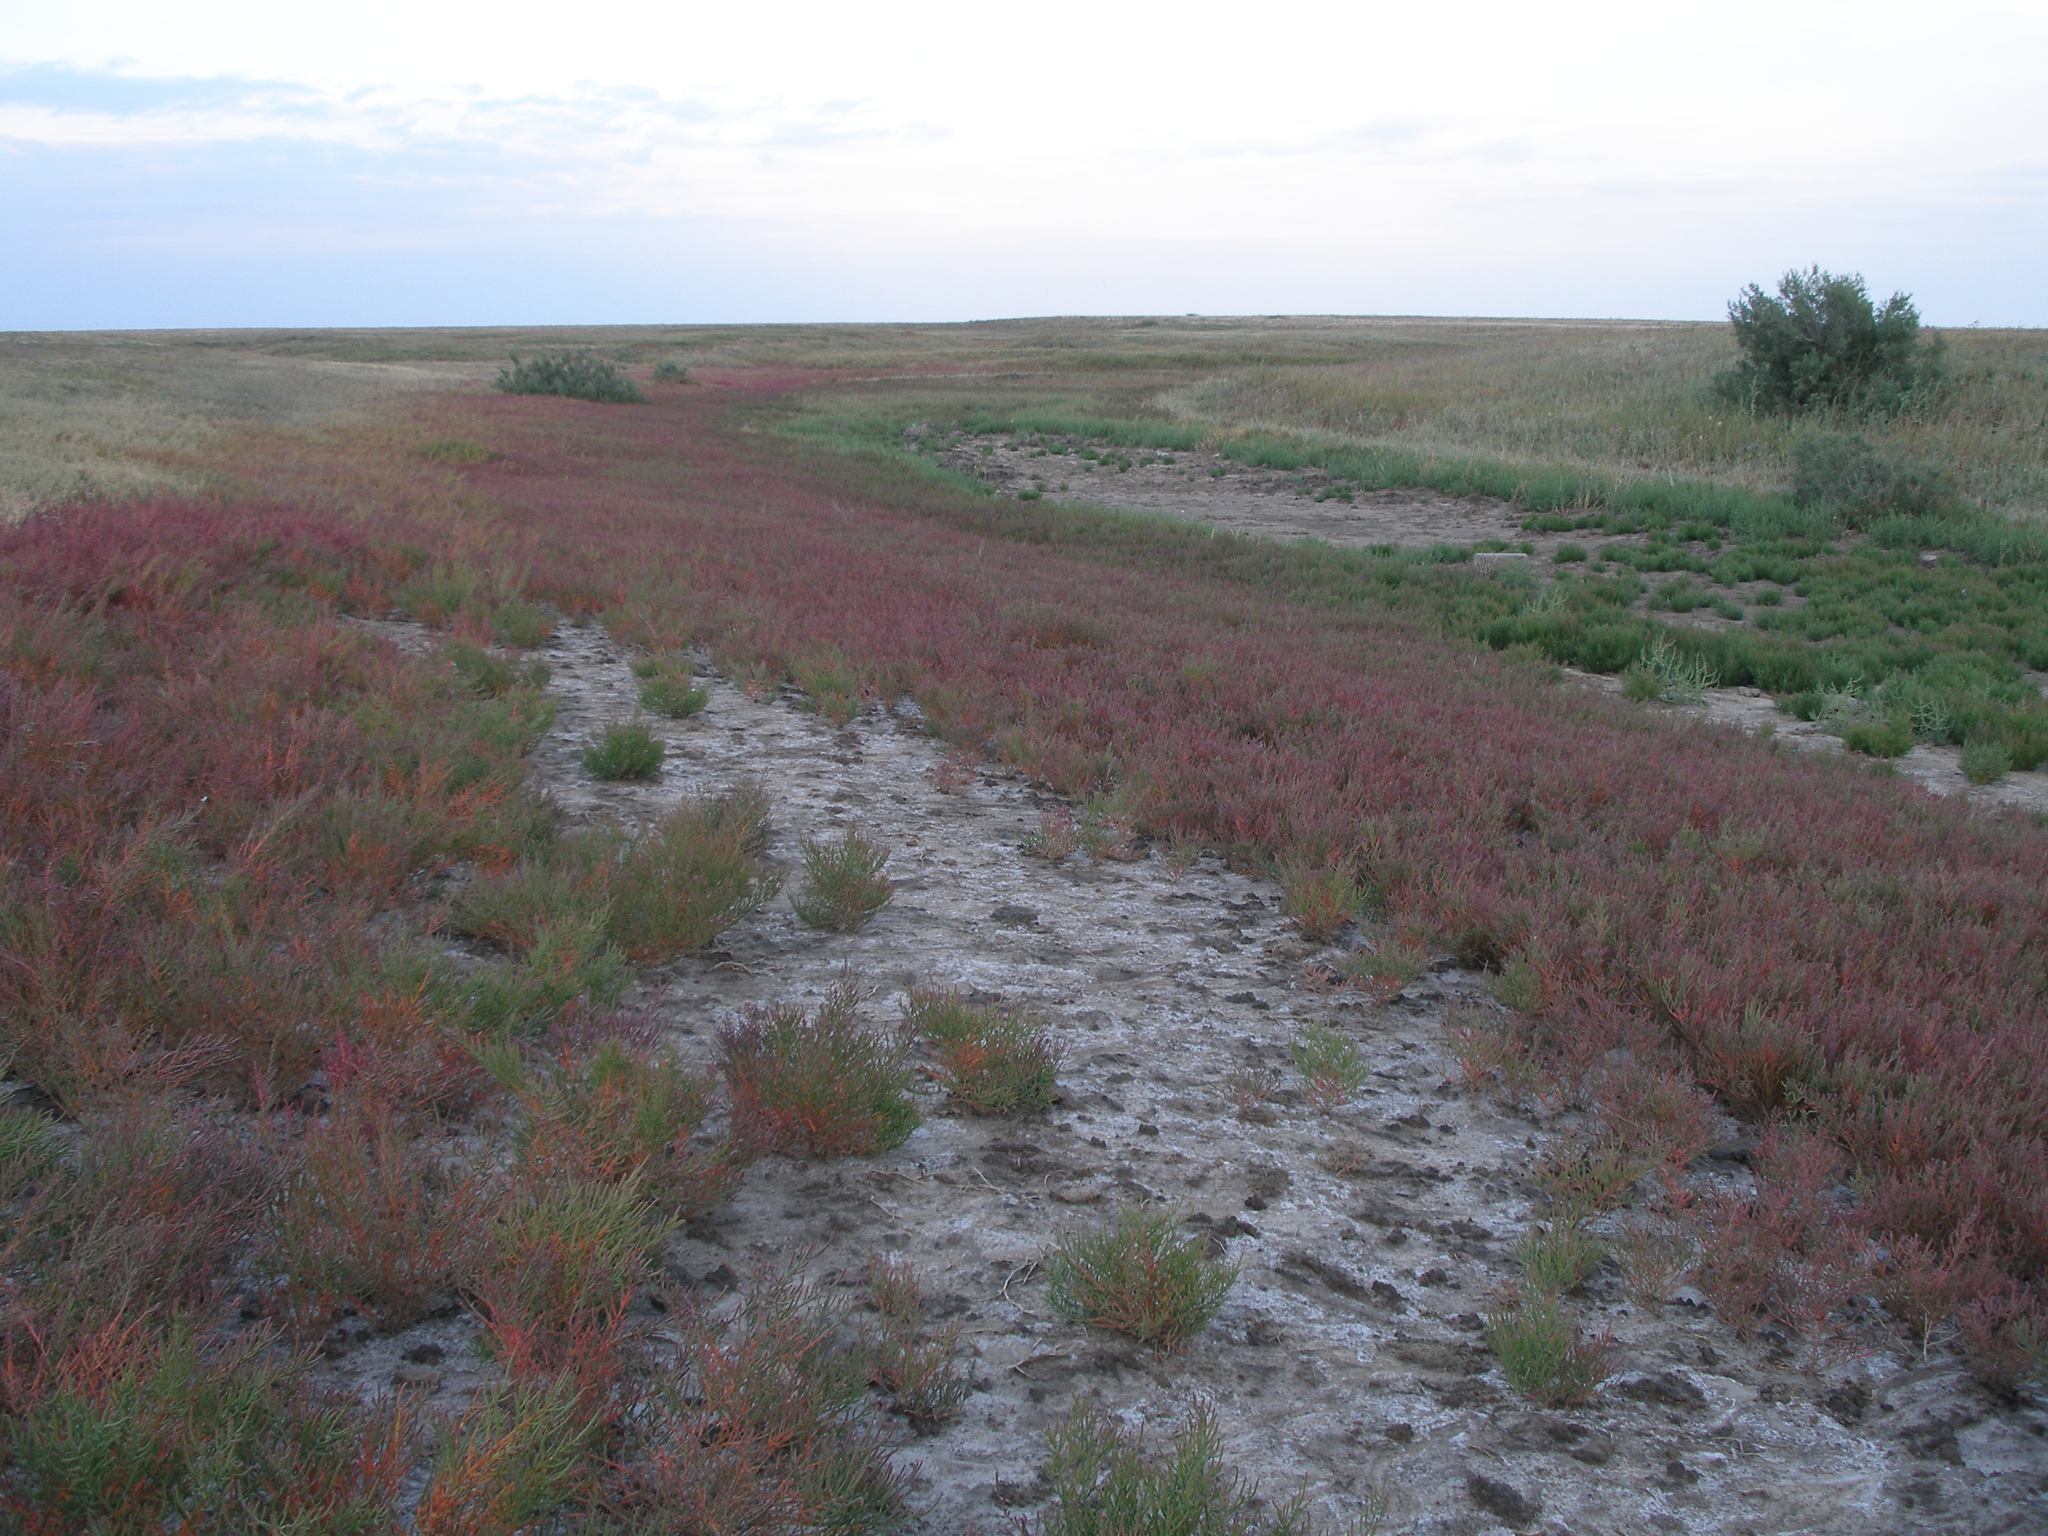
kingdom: Plantae
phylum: Tracheophyta
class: Magnoliopsida
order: Caryophyllales
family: Amaranthaceae
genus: Salicornia
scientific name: Salicornia perennans
